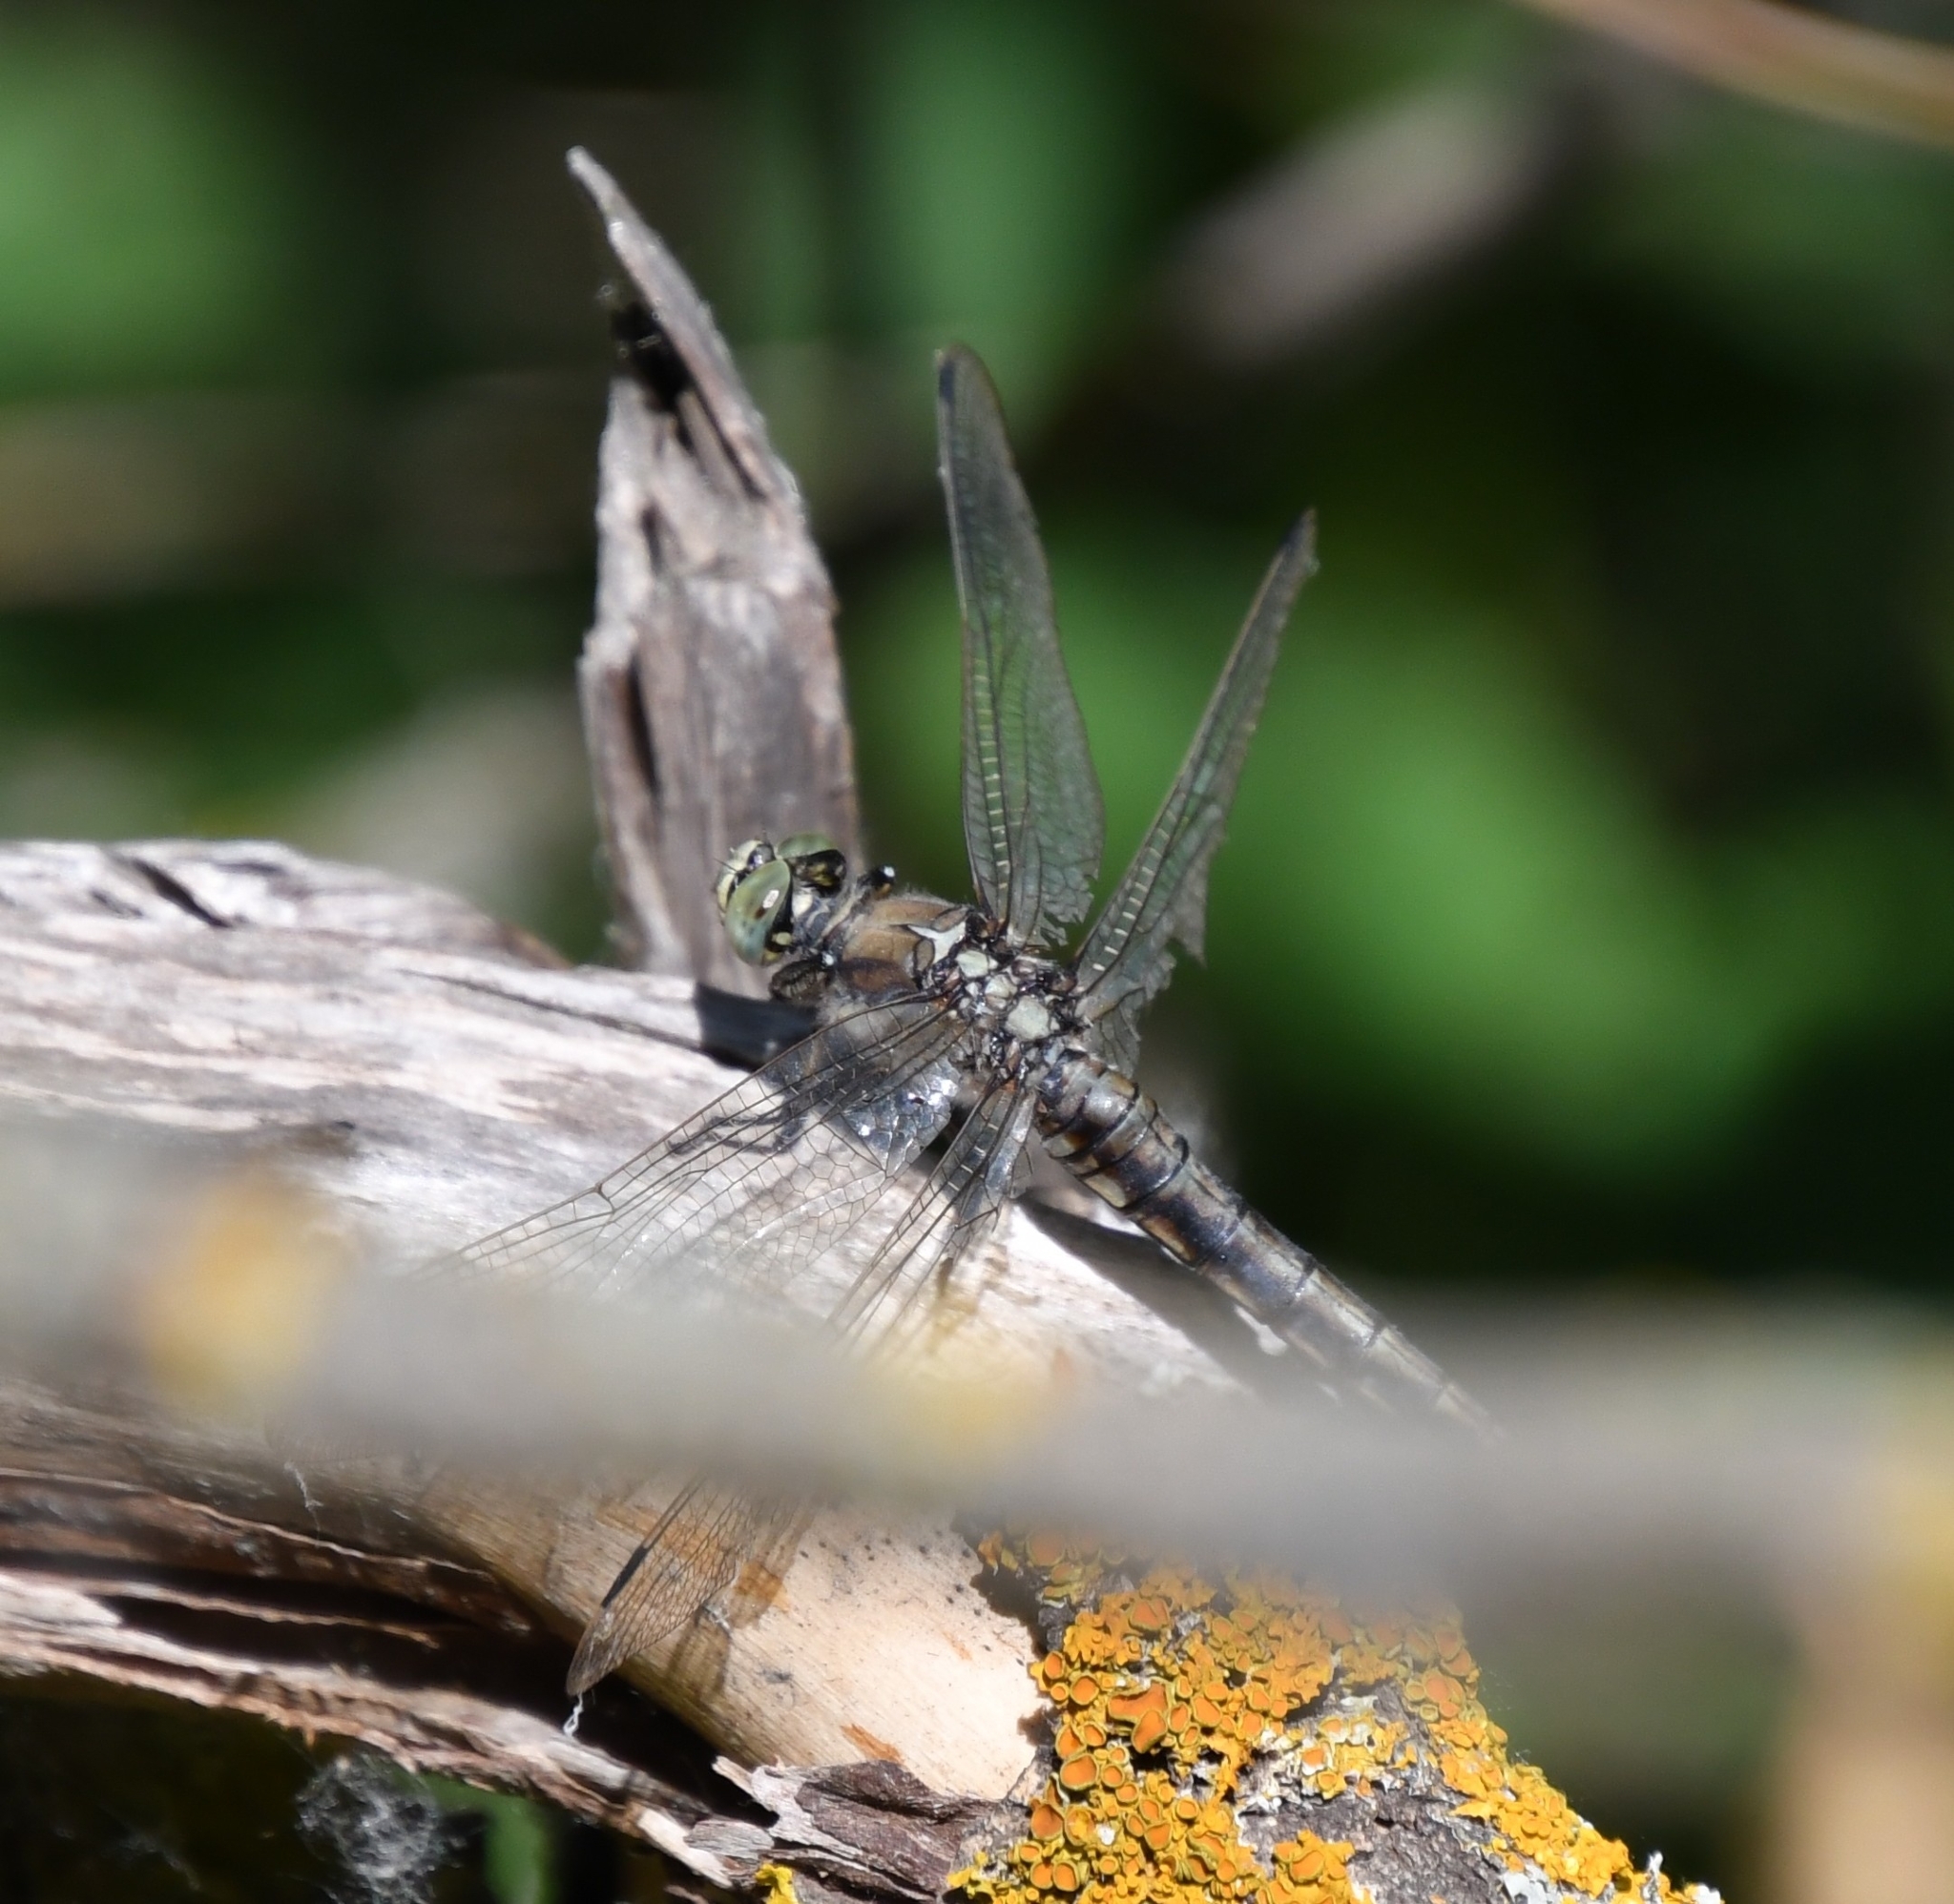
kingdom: Animalia
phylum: Arthropoda
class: Insecta
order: Odonata
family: Libellulidae
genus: Orthetrum
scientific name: Orthetrum cancellatum
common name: Black-tailed skimmer
